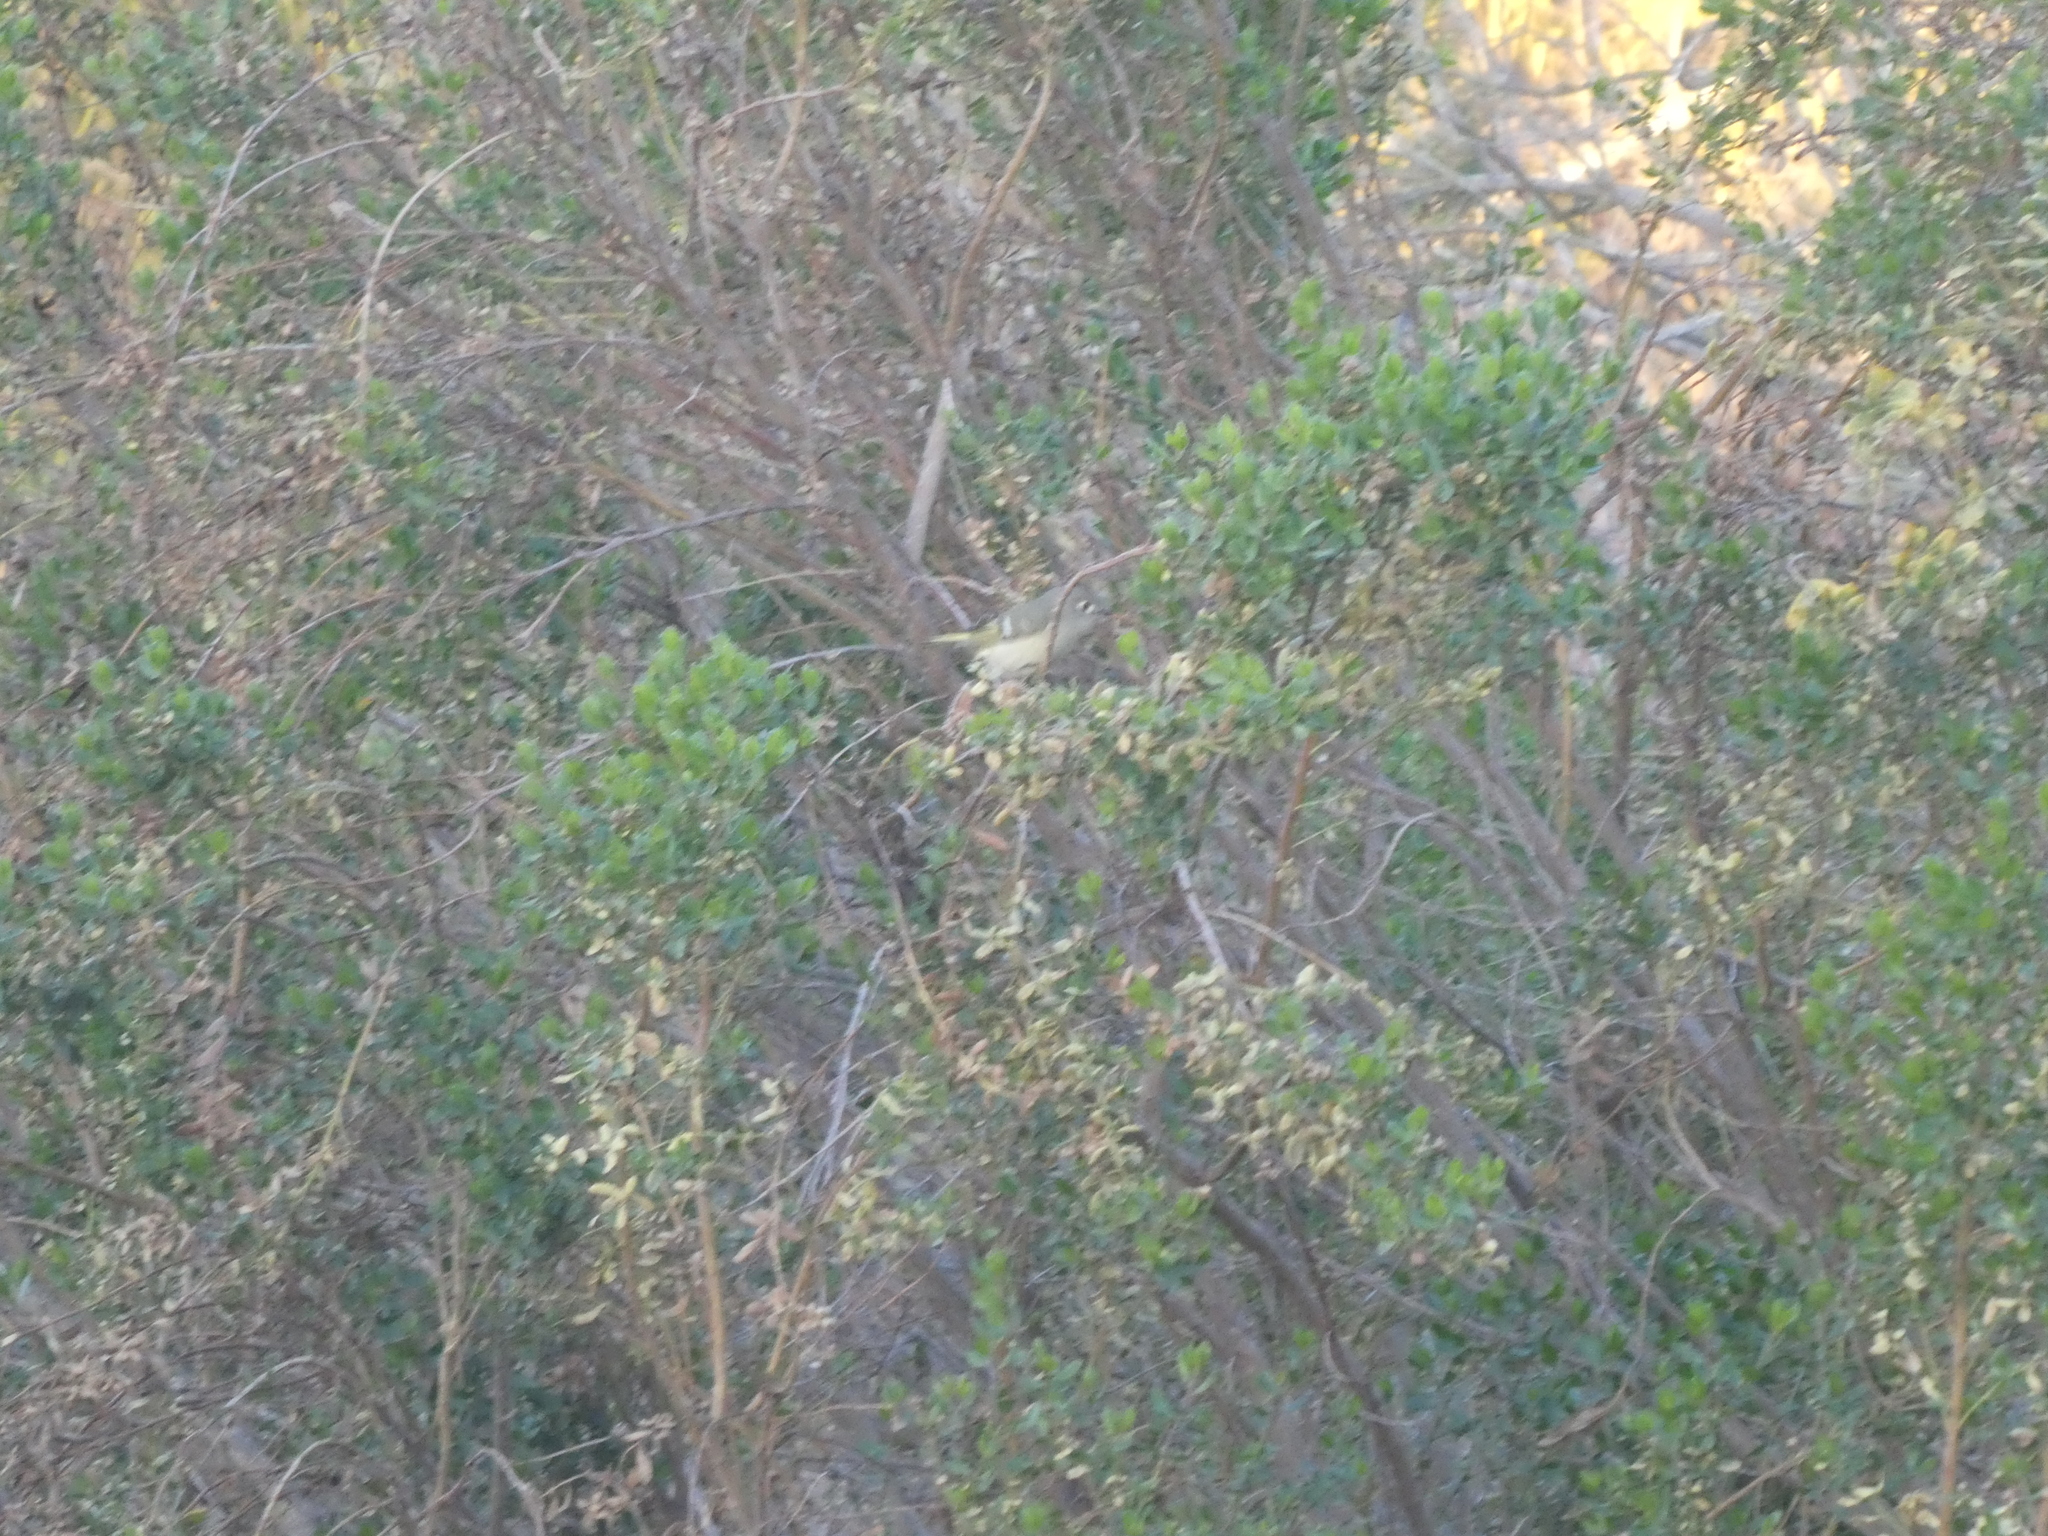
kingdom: Animalia
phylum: Chordata
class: Aves
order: Passeriformes
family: Regulidae
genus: Regulus
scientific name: Regulus calendula
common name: Ruby-crowned kinglet
